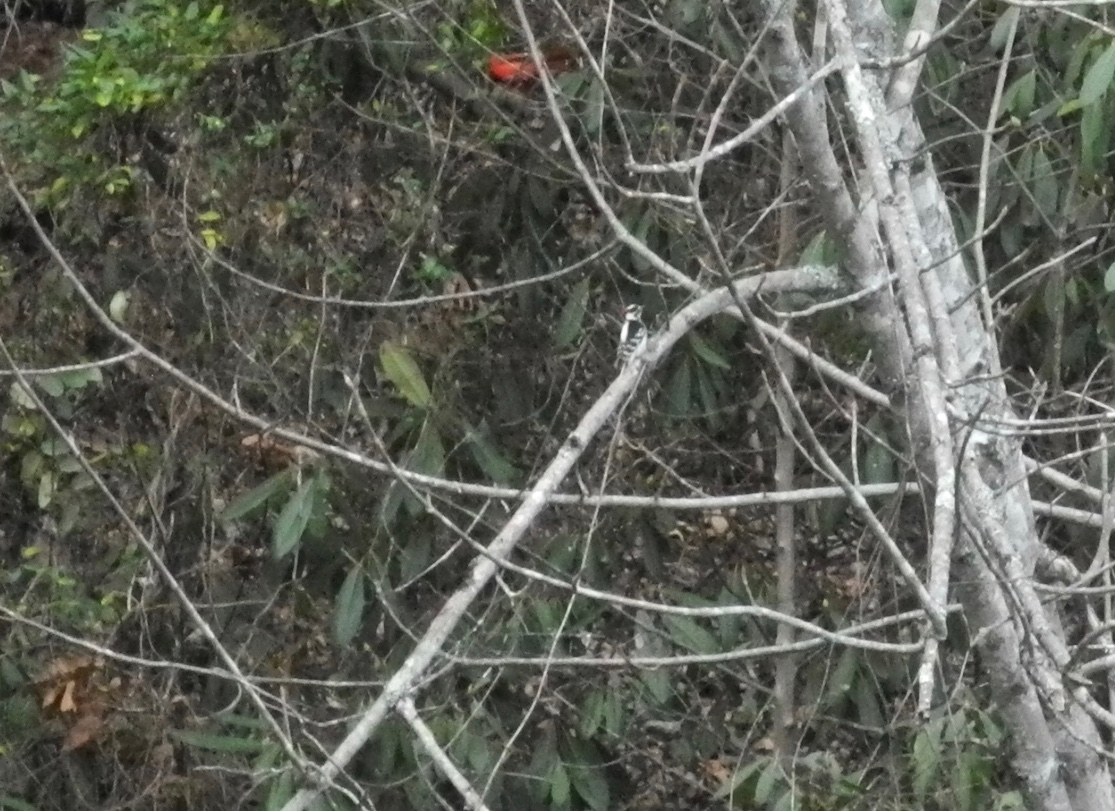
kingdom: Animalia
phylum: Chordata
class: Aves
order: Piciformes
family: Picidae
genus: Dryobates
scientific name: Dryobates pubescens
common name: Downy woodpecker
